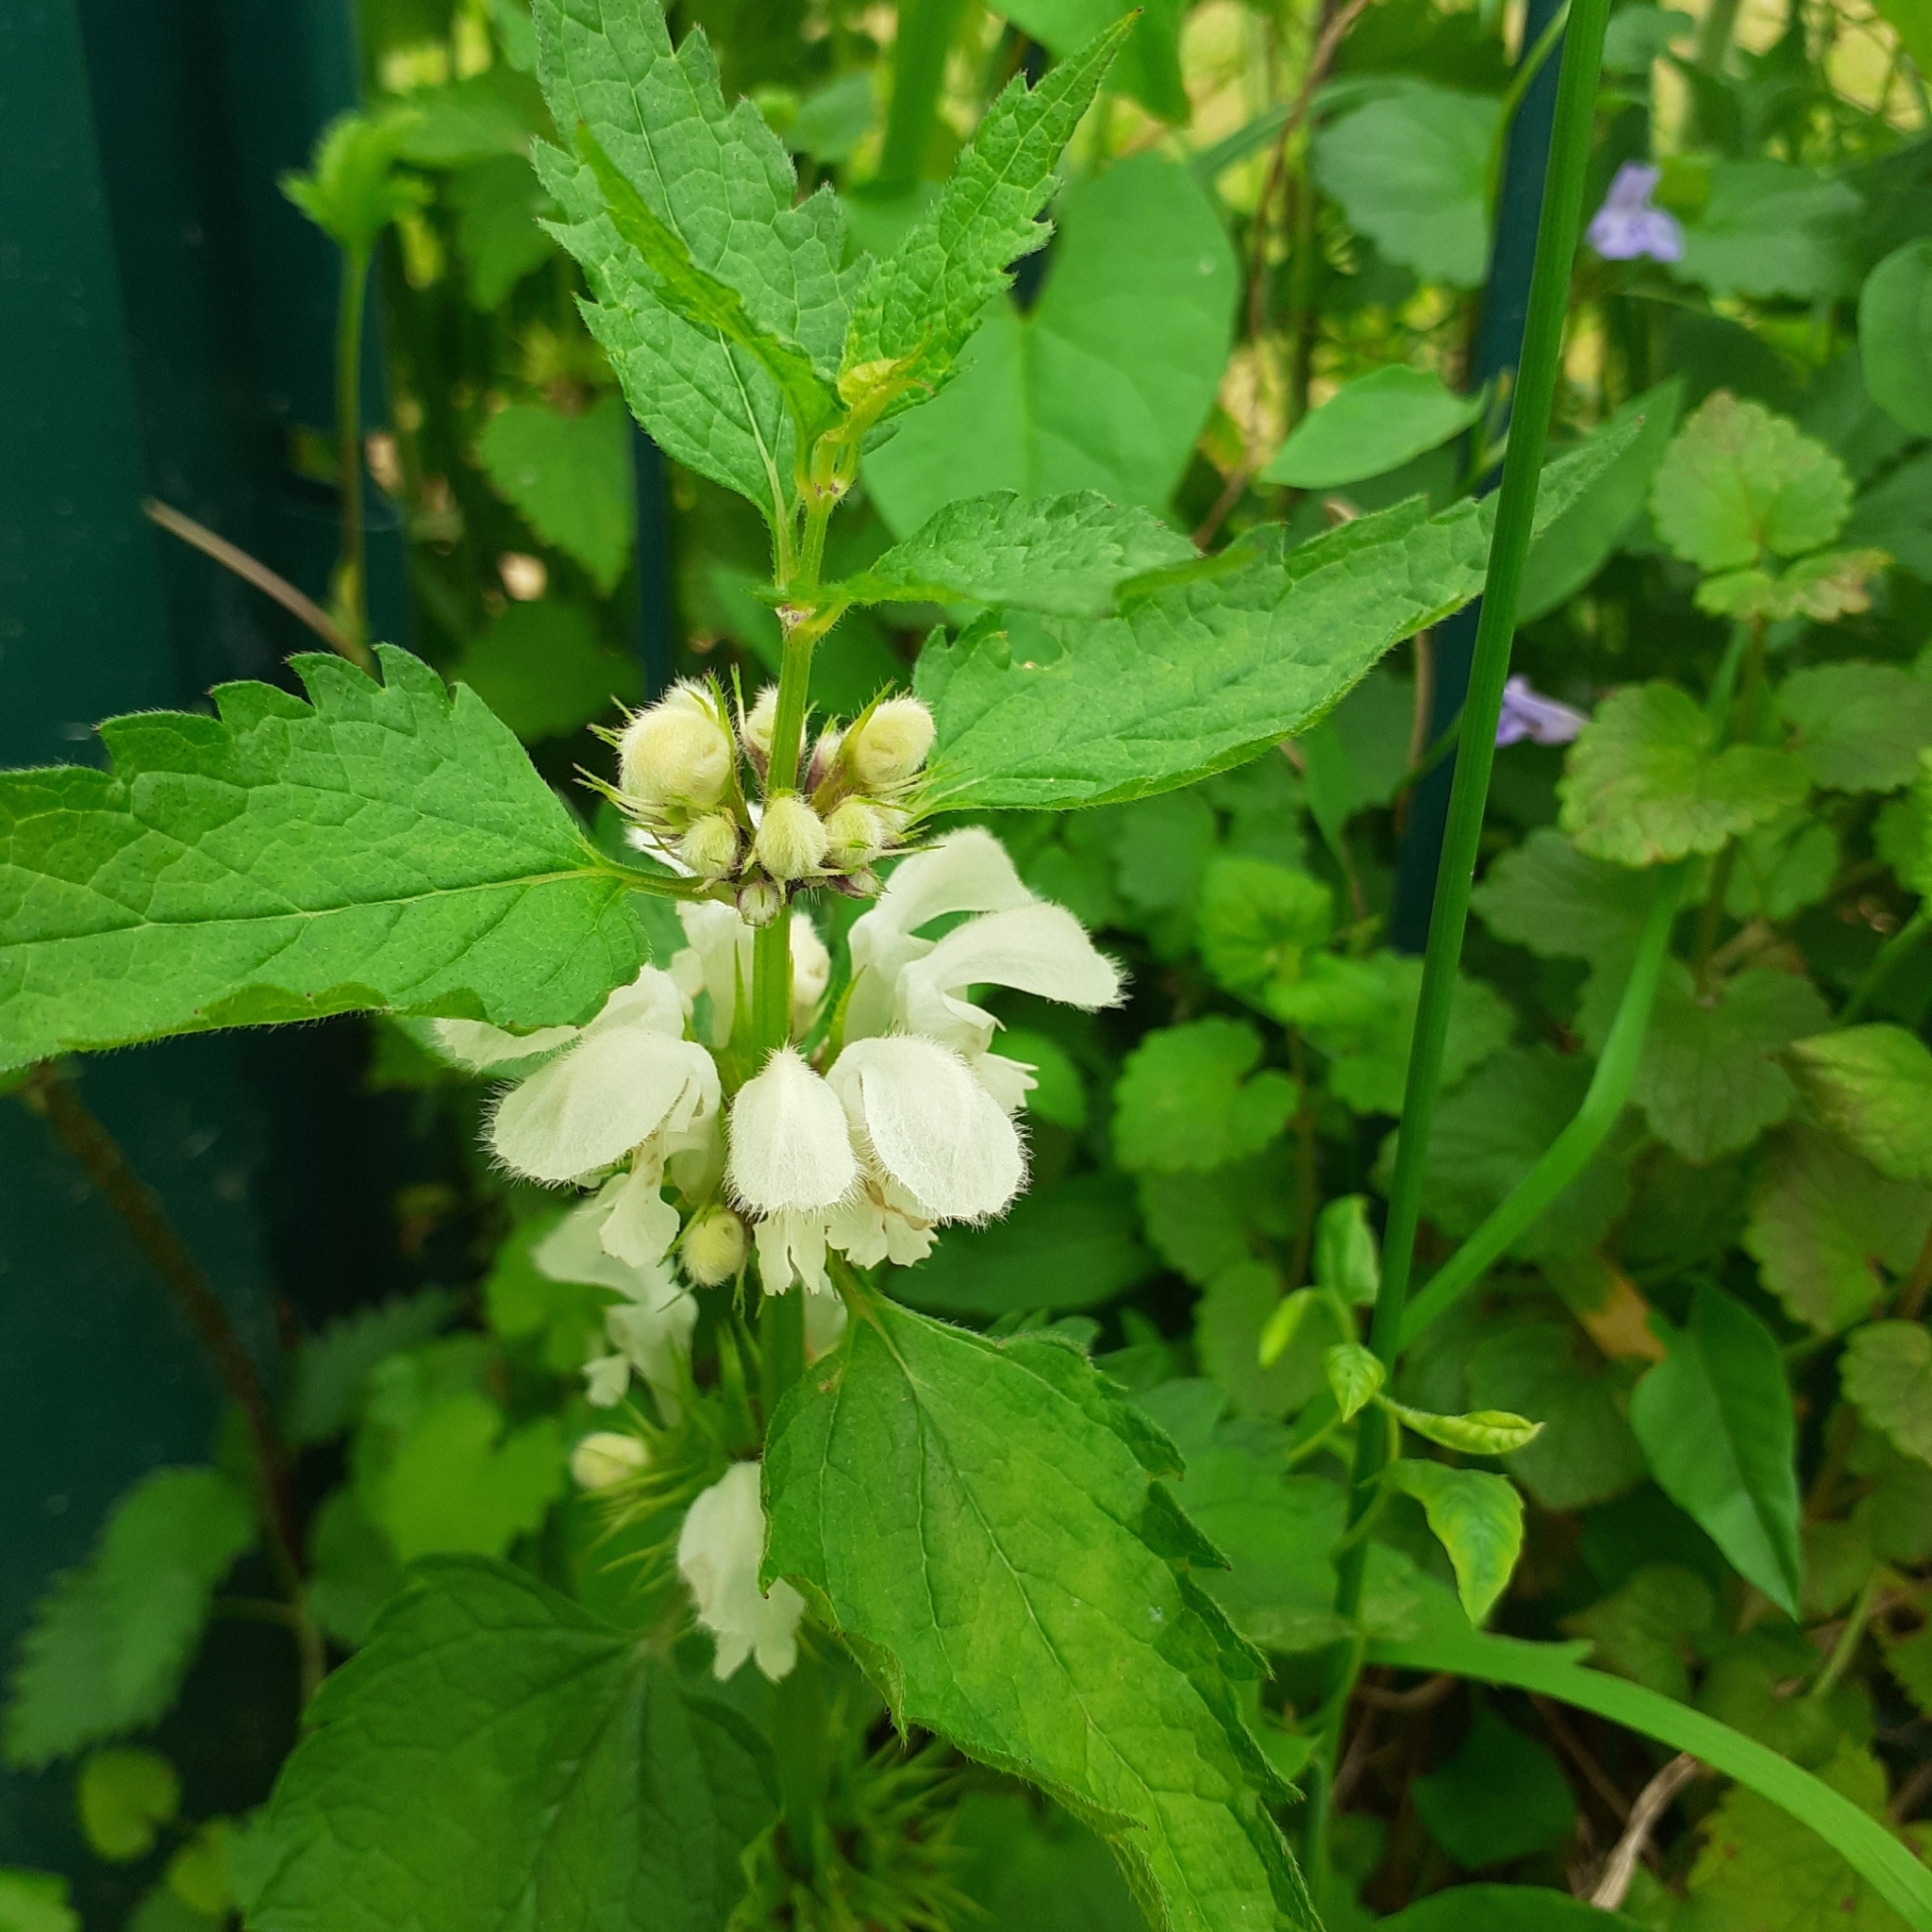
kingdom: Plantae
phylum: Tracheophyta
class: Magnoliopsida
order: Lamiales
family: Lamiaceae
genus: Lamium
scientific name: Lamium album
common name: White dead-nettle
